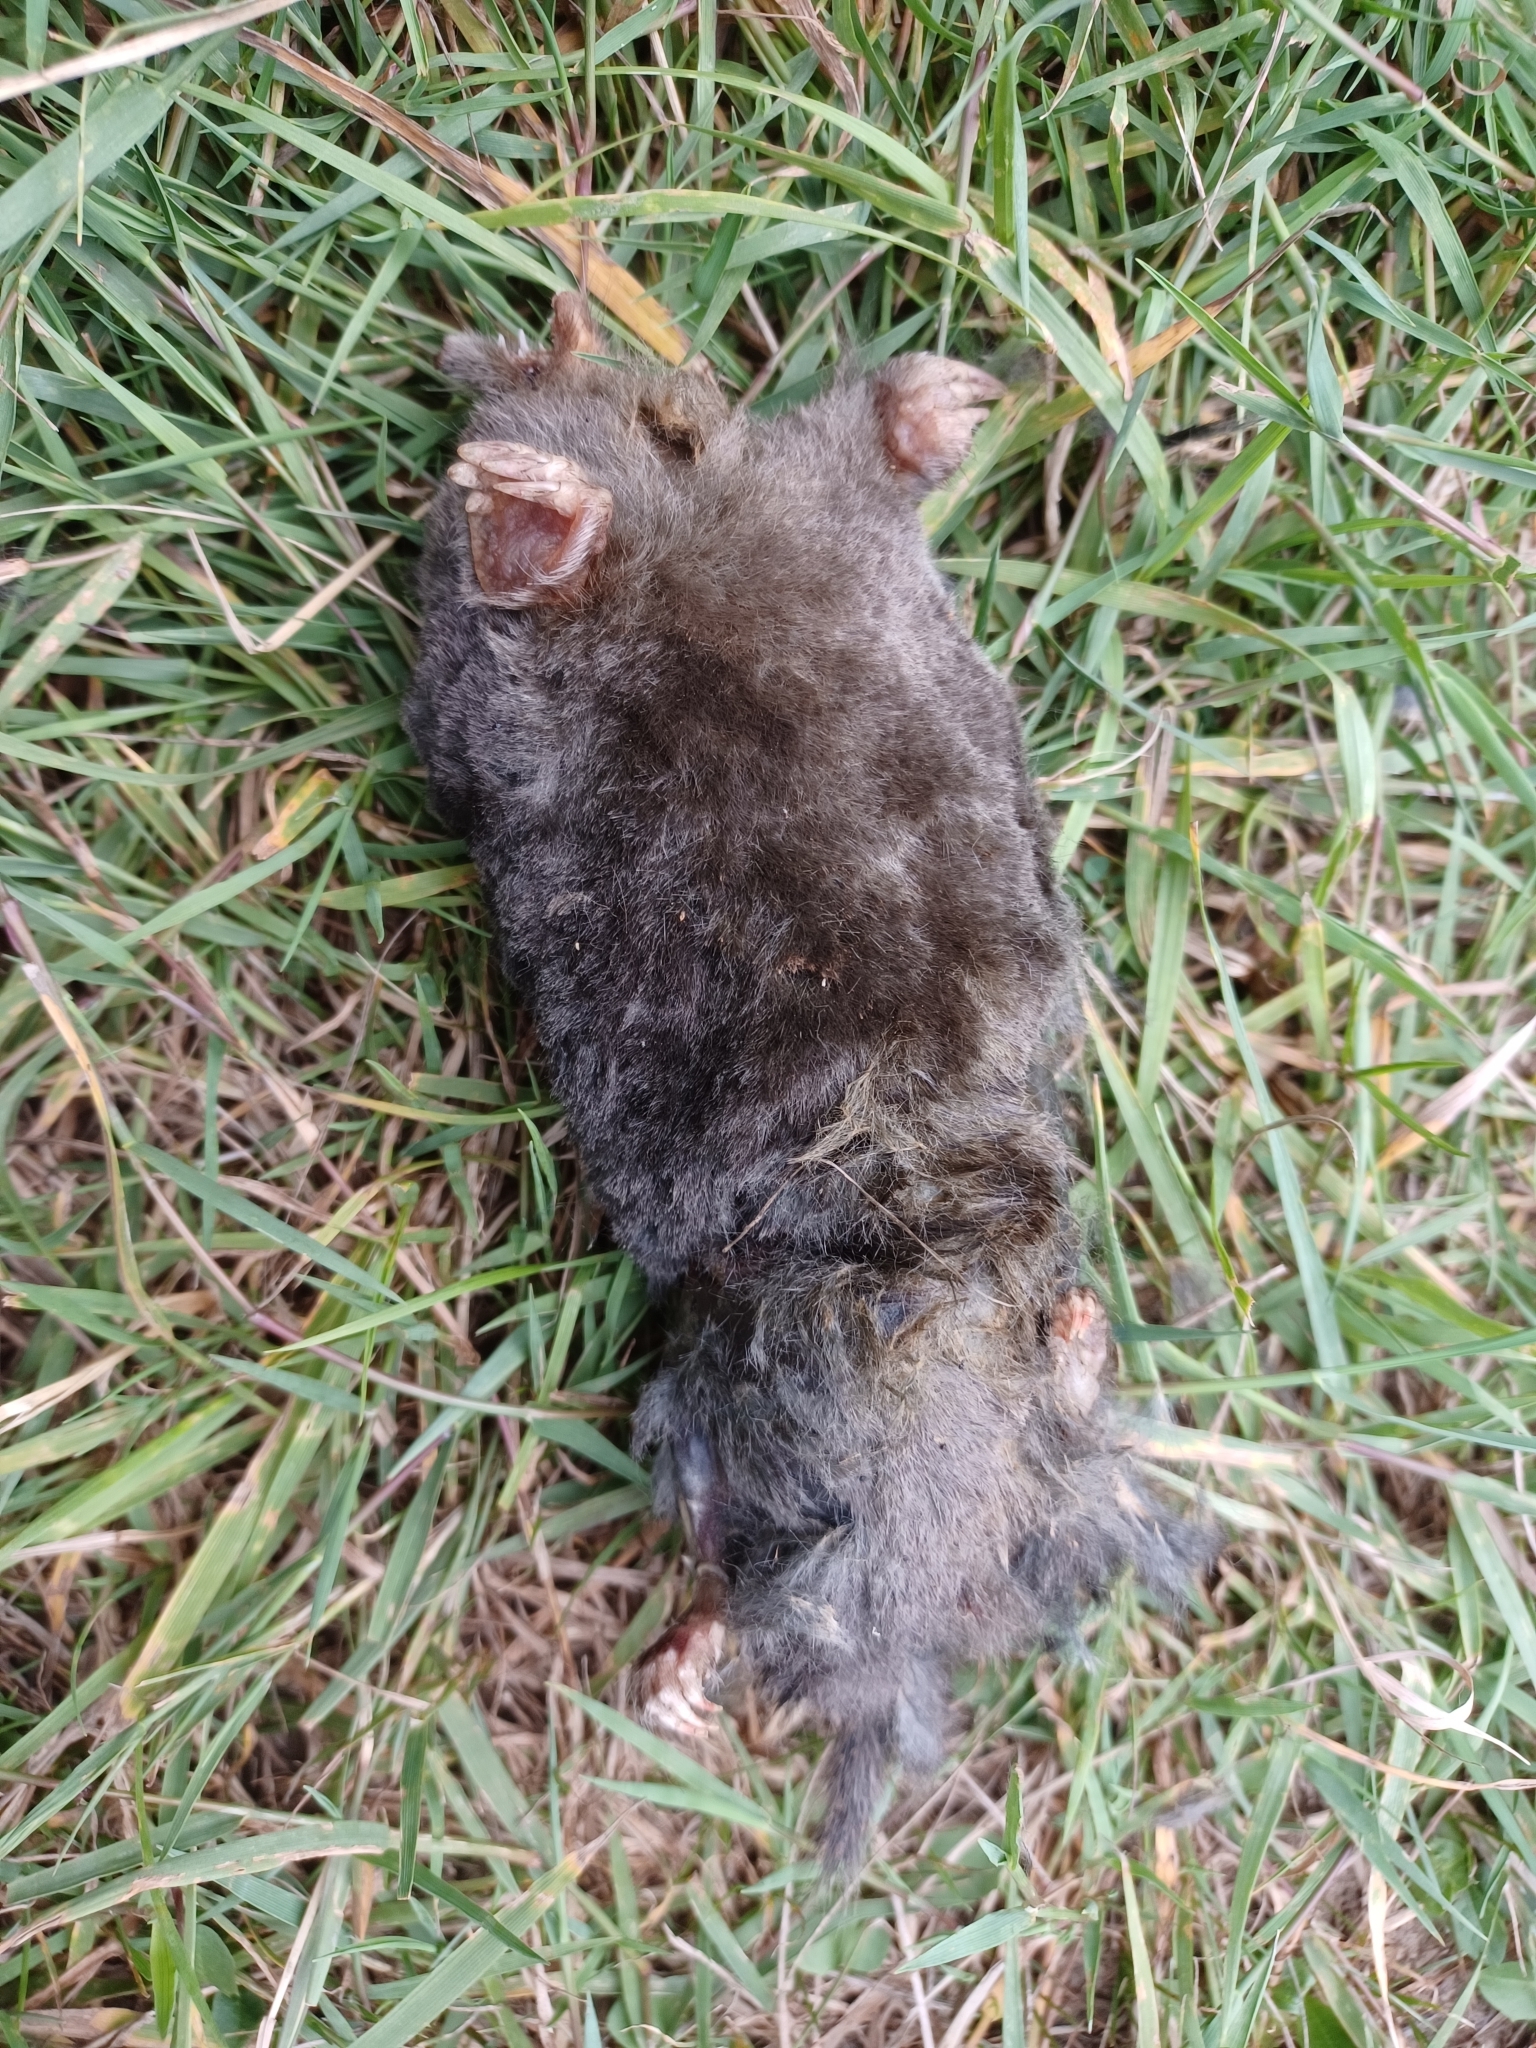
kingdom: Animalia
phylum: Chordata
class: Mammalia
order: Soricomorpha
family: Talpidae
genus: Talpa
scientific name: Talpa europaea
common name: European mole
